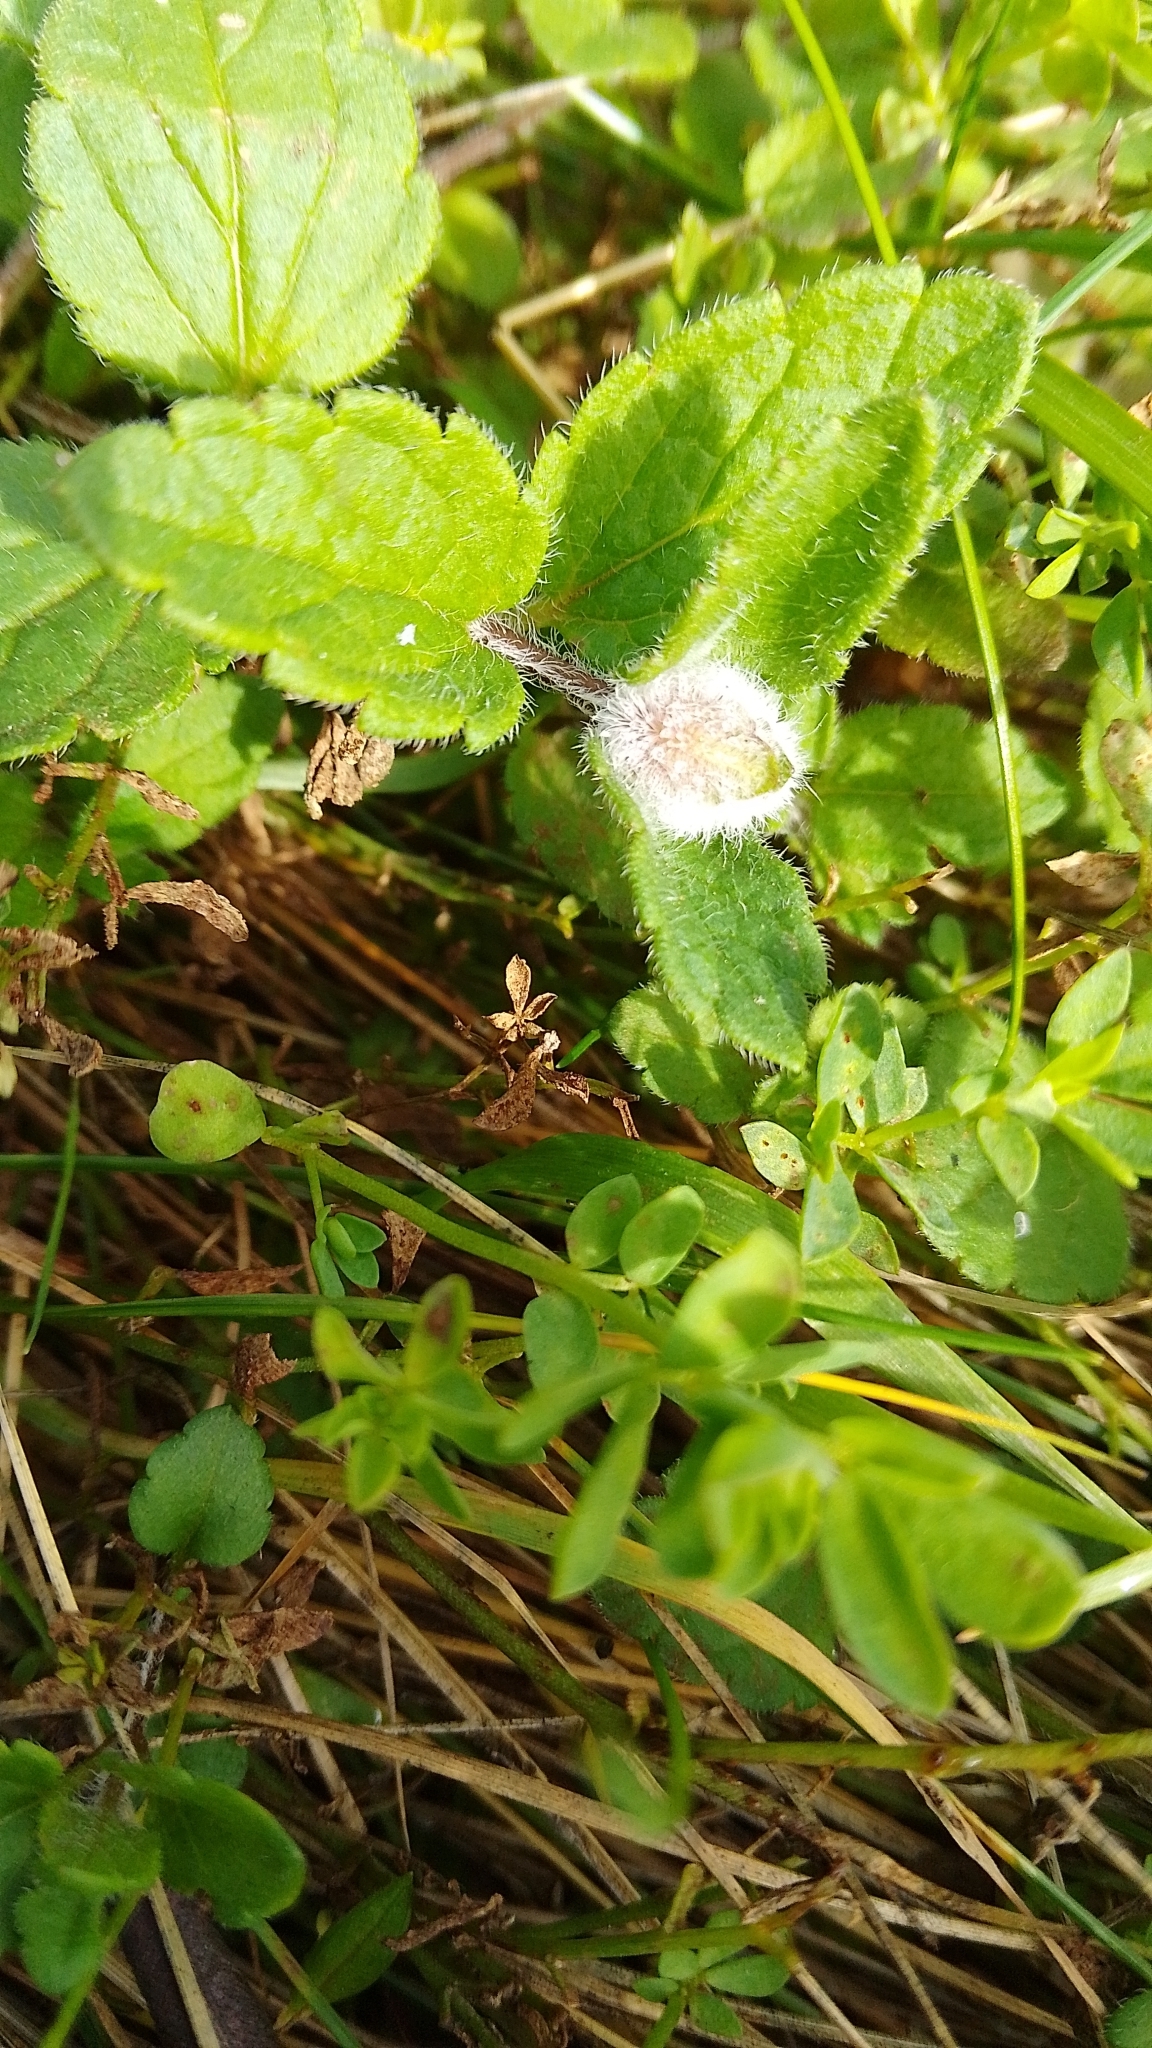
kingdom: Animalia
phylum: Arthropoda
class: Insecta
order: Diptera
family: Cecidomyiidae
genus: Jaapiella
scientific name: Jaapiella veronicae
